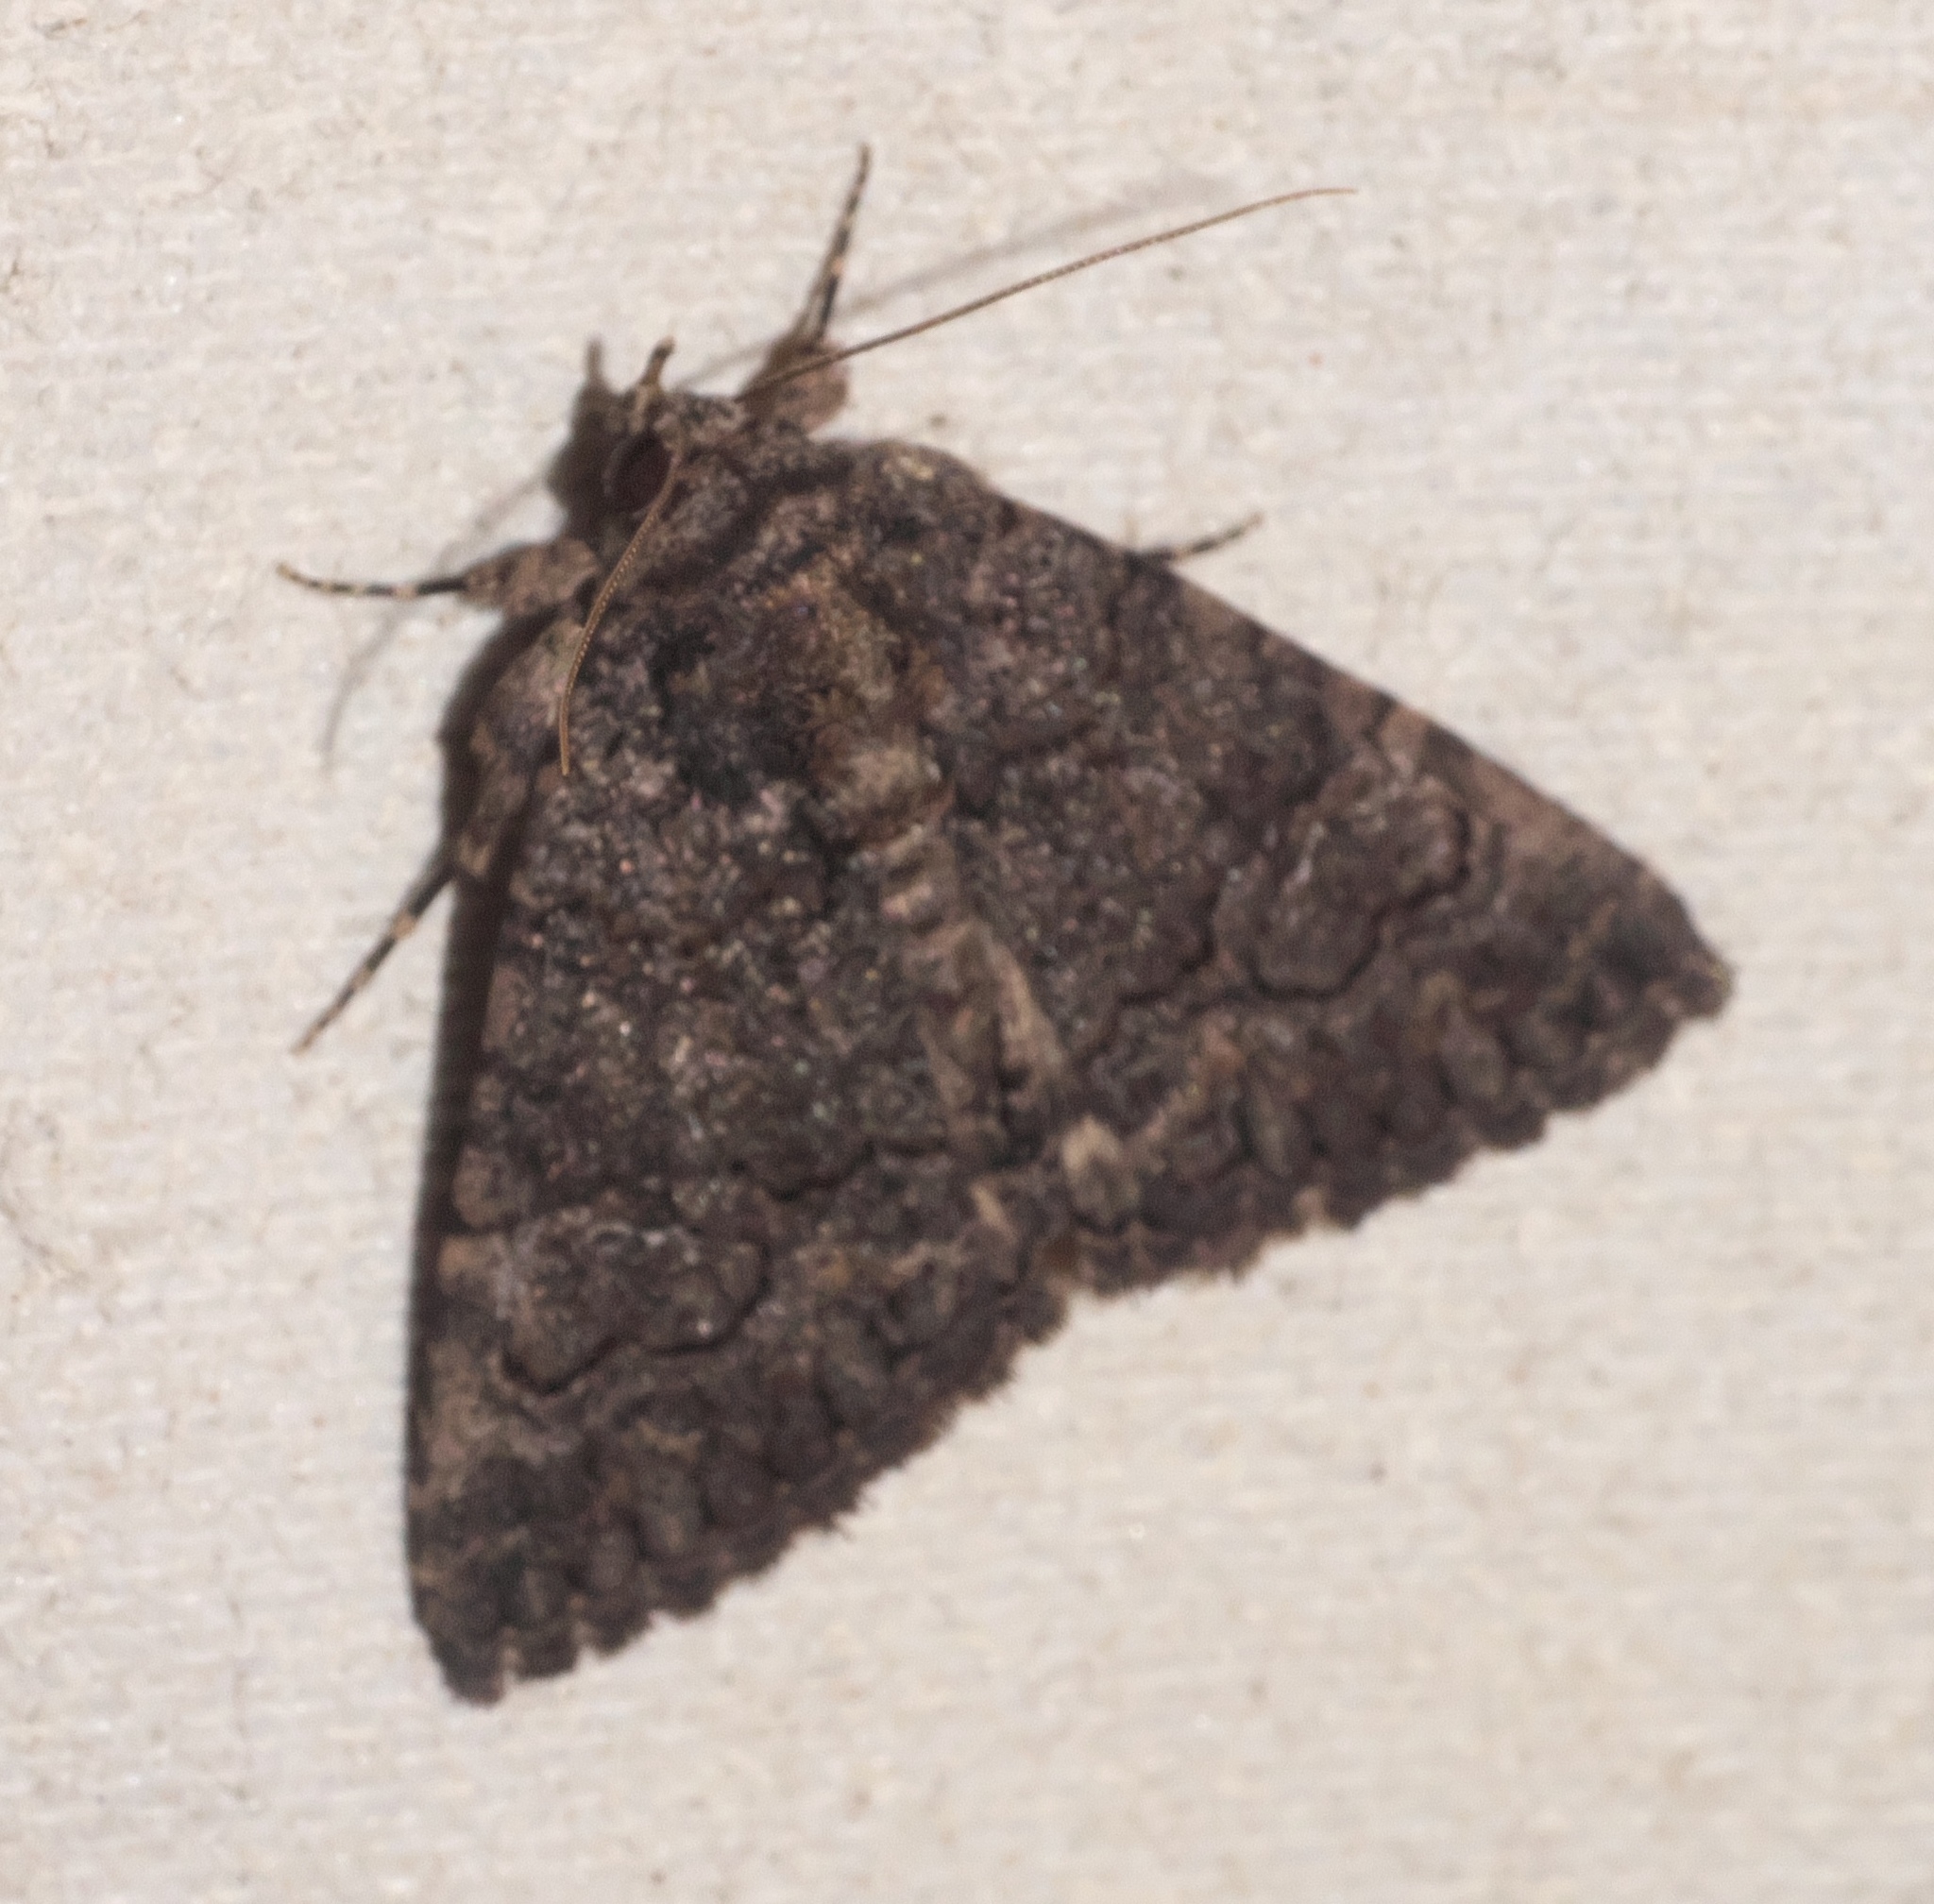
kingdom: Animalia
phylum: Arthropoda
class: Insecta
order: Lepidoptera
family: Erebidae
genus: Elousa
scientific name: Elousa mima
